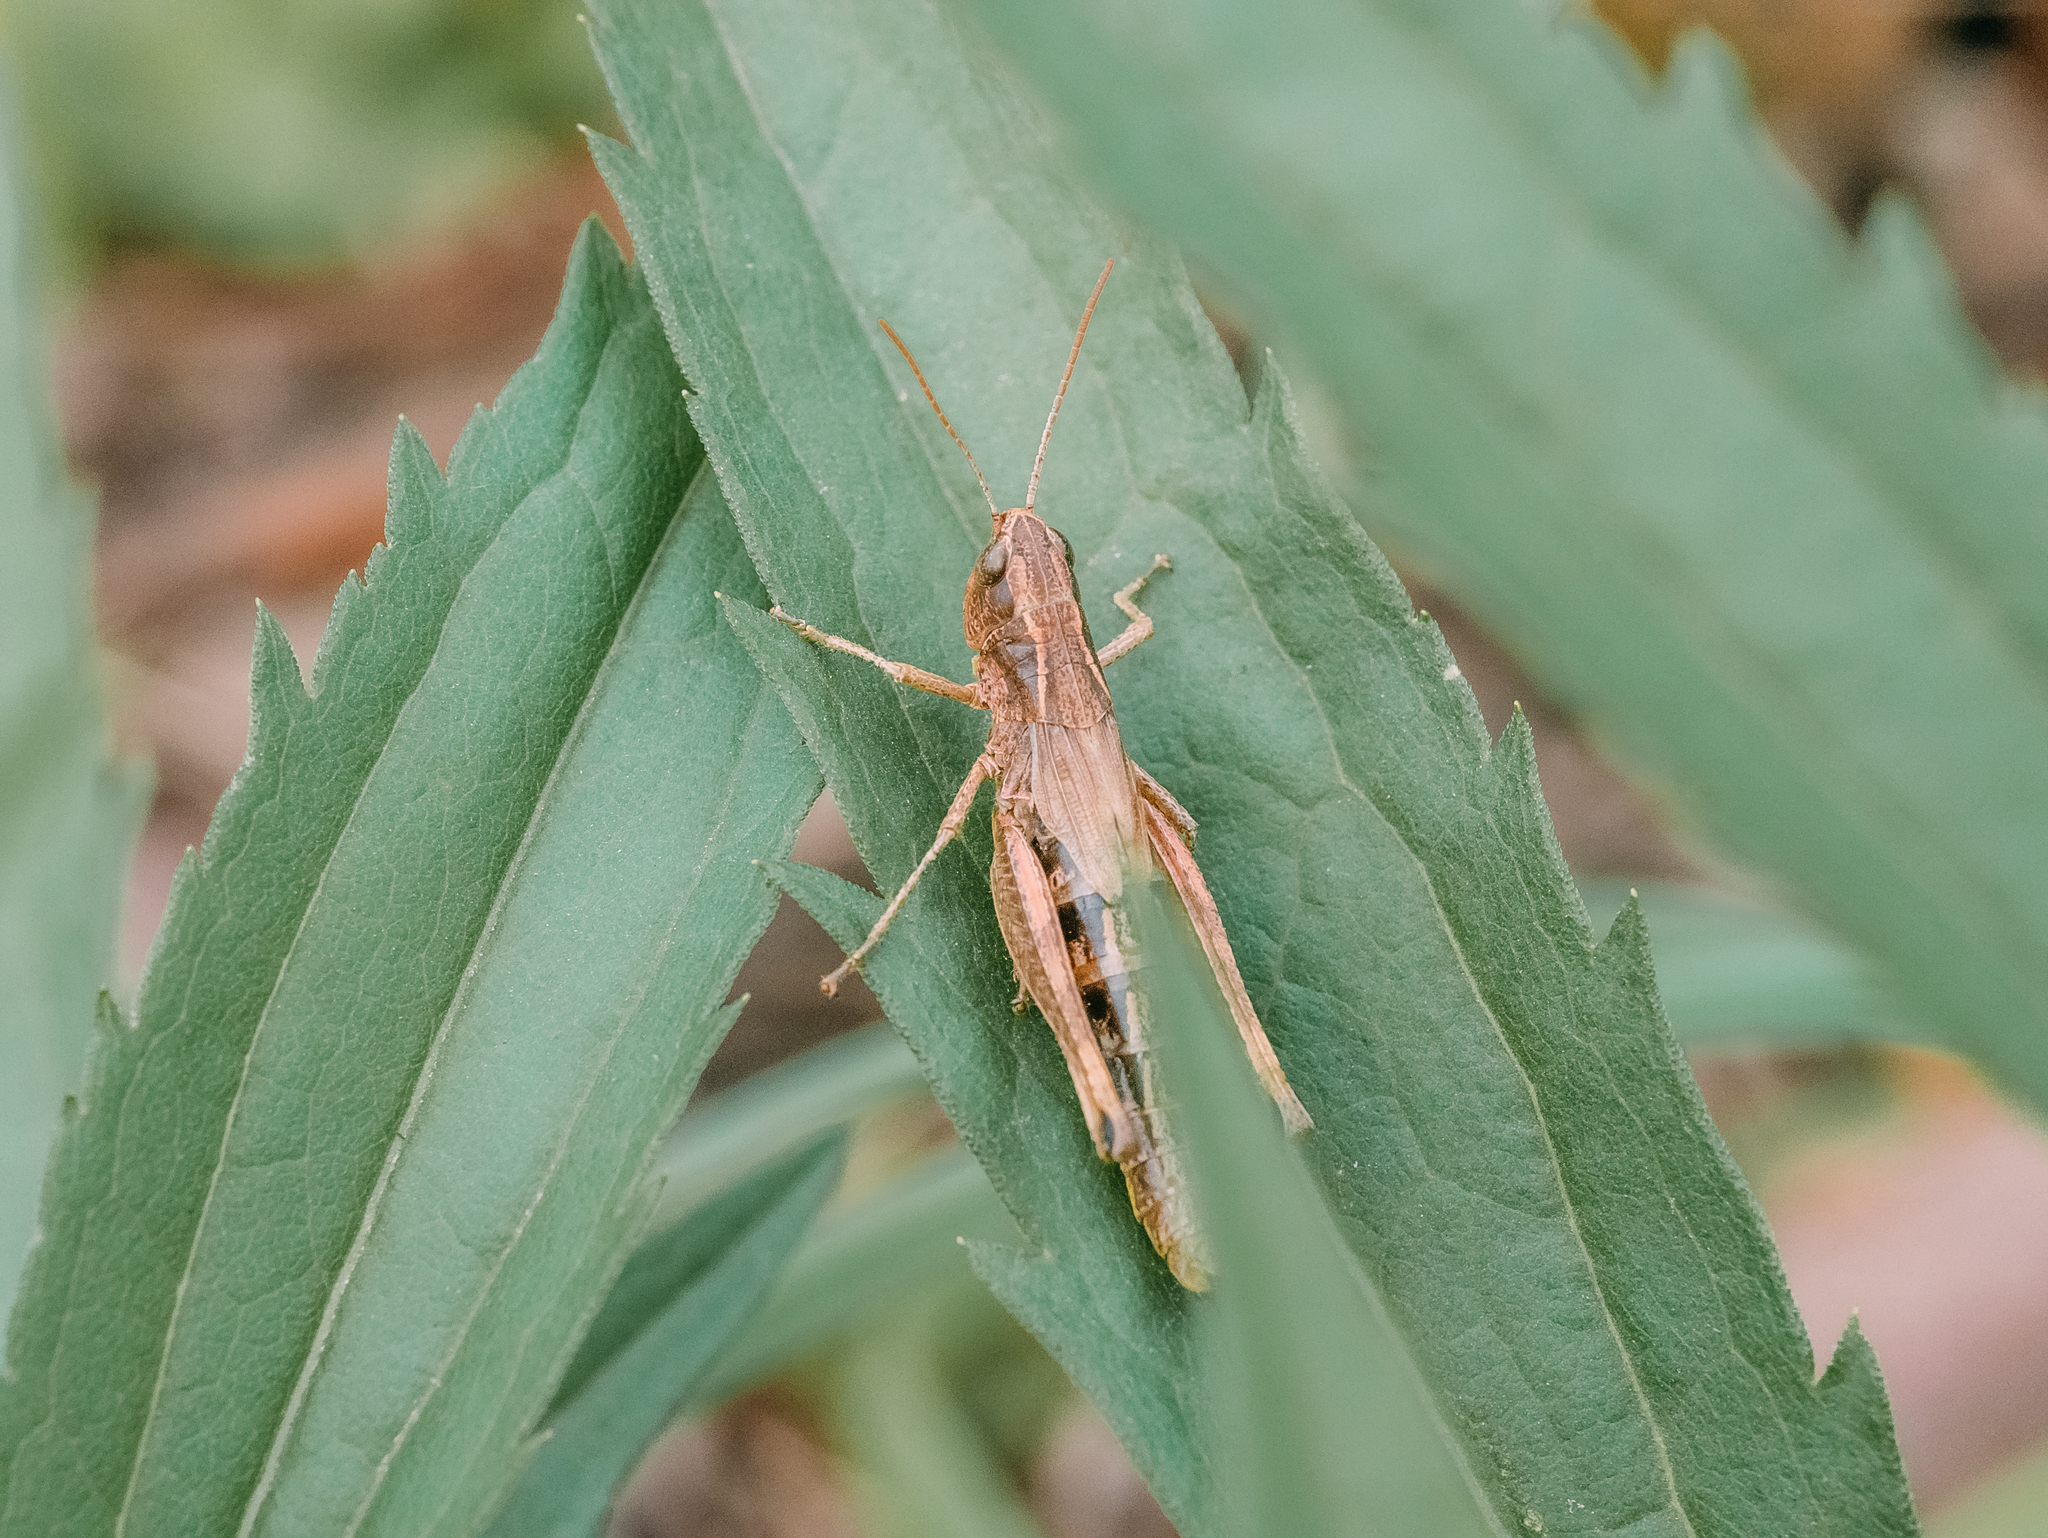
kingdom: Animalia
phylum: Arthropoda
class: Insecta
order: Orthoptera
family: Acrididae
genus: Pseudochorthippus
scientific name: Pseudochorthippus parallelus
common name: Meadow grasshopper
